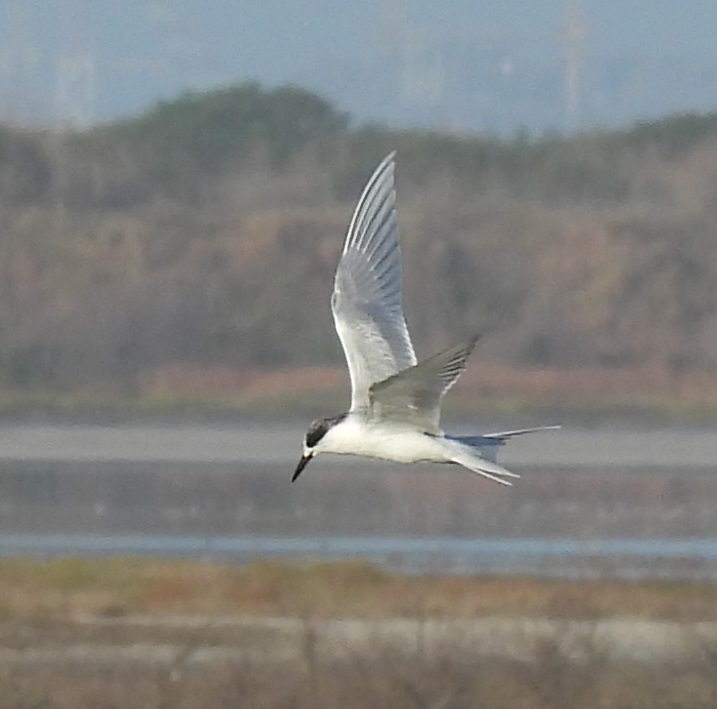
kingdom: Animalia
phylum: Chordata
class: Aves
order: Charadriiformes
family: Laridae
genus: Sterna
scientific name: Sterna forsteri
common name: Forster's tern
